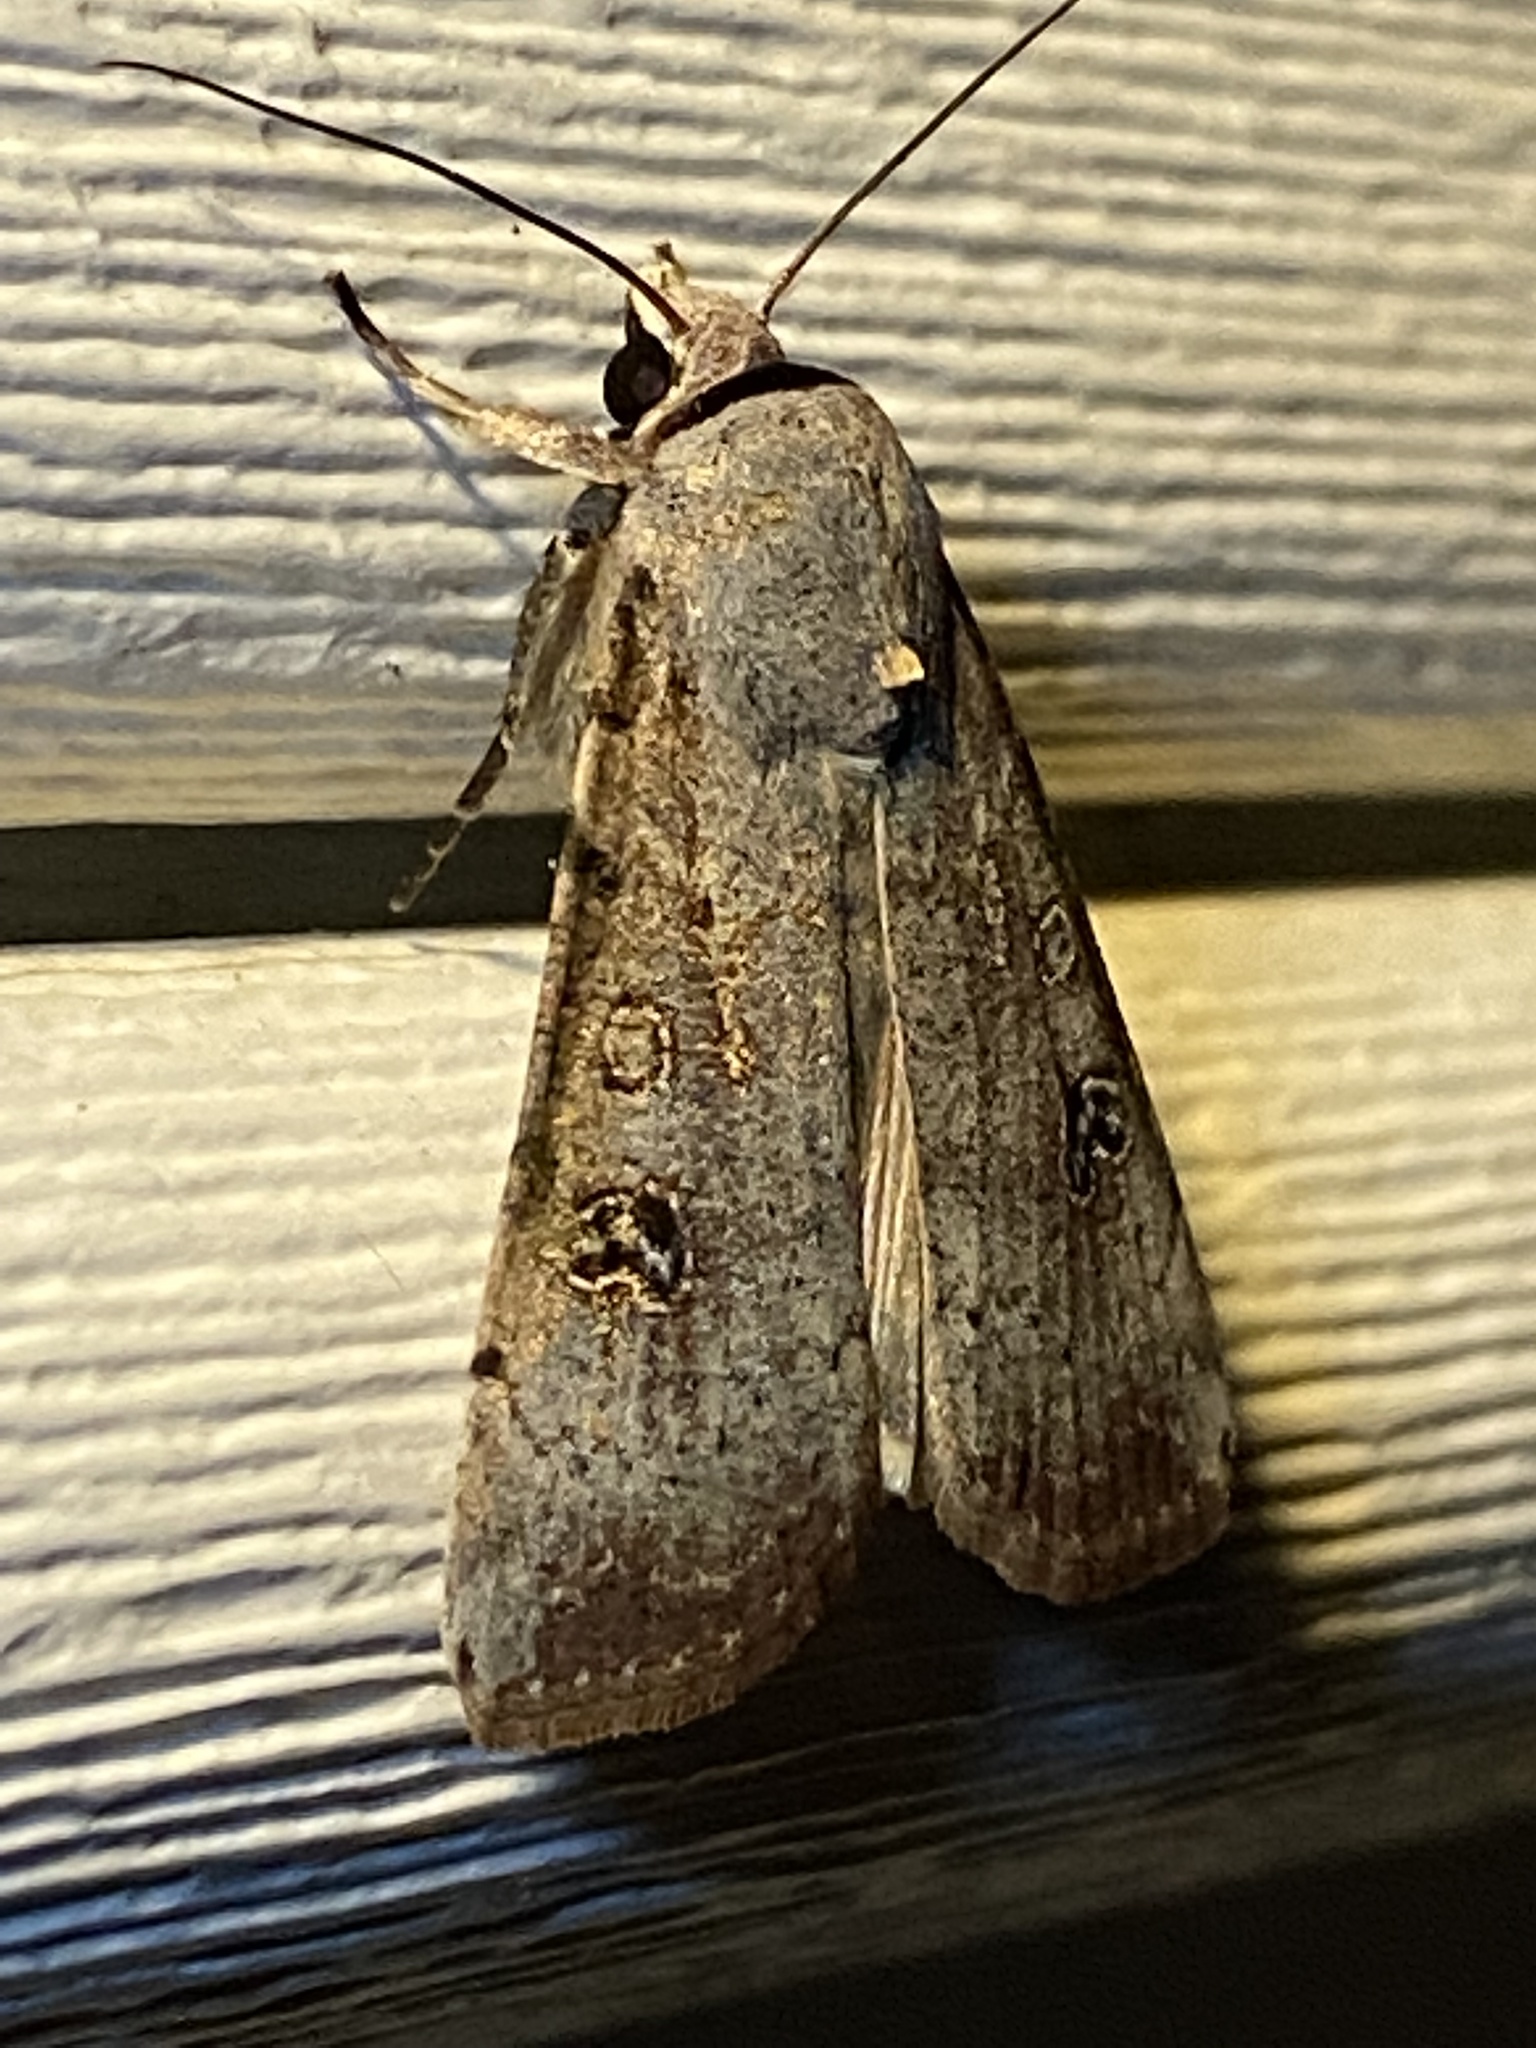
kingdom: Animalia
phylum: Arthropoda
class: Insecta
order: Lepidoptera
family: Noctuidae
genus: Anicla
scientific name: Anicla infecta
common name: Green cutworm
